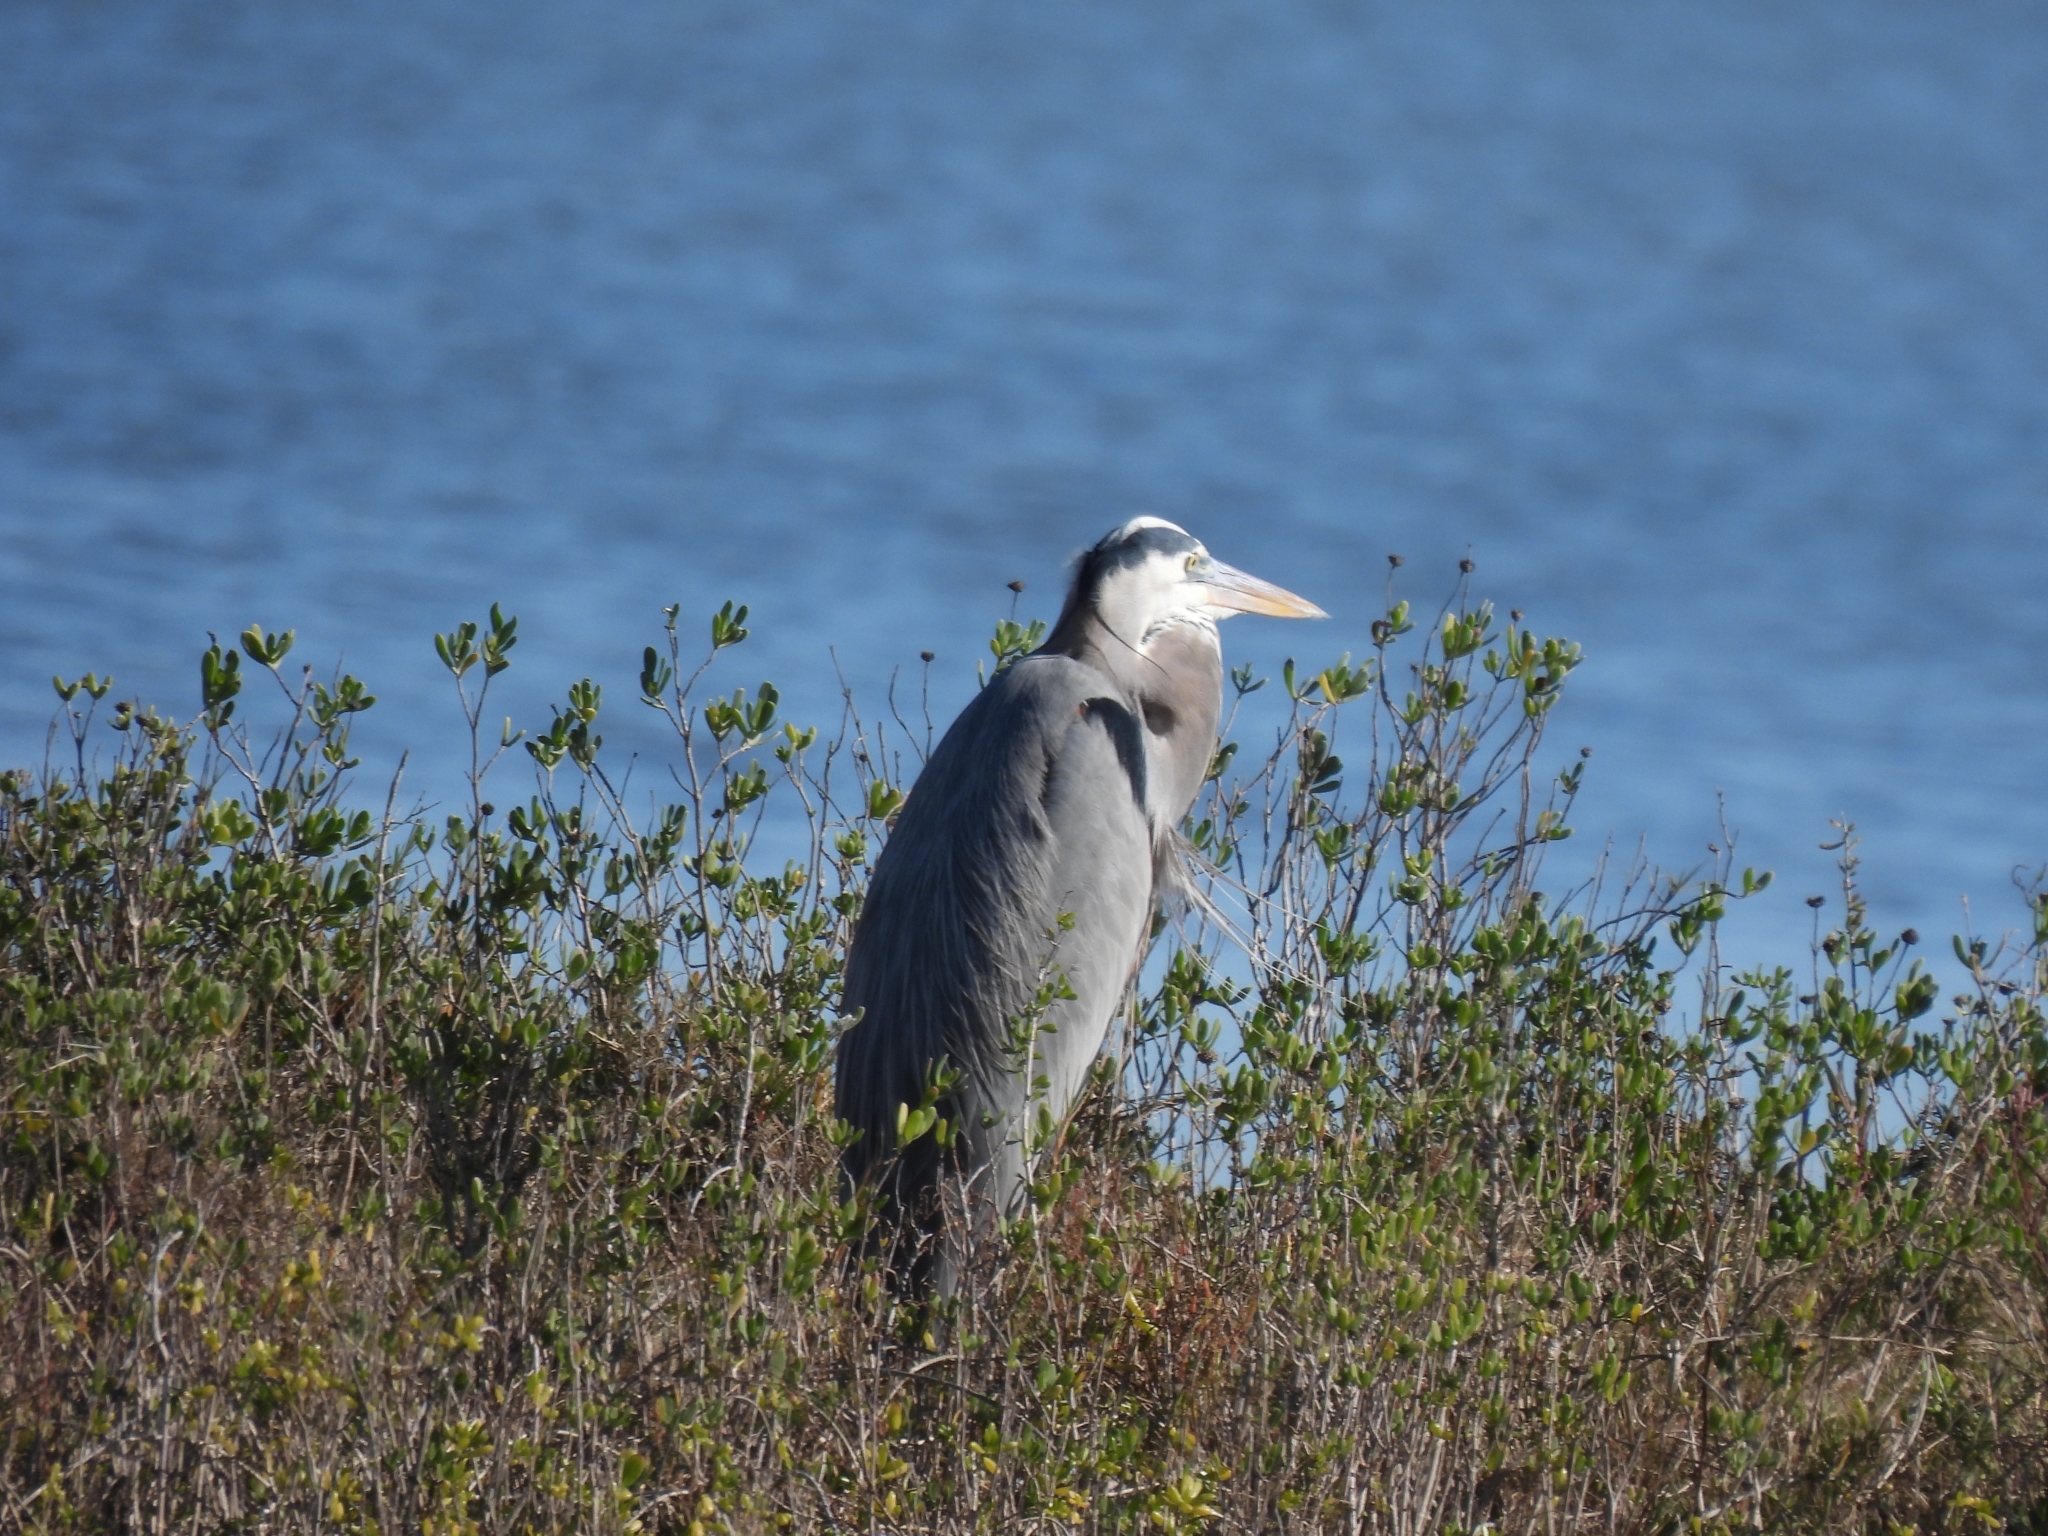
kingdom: Animalia
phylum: Chordata
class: Aves
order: Pelecaniformes
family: Ardeidae
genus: Ardea
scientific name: Ardea herodias
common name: Great blue heron
